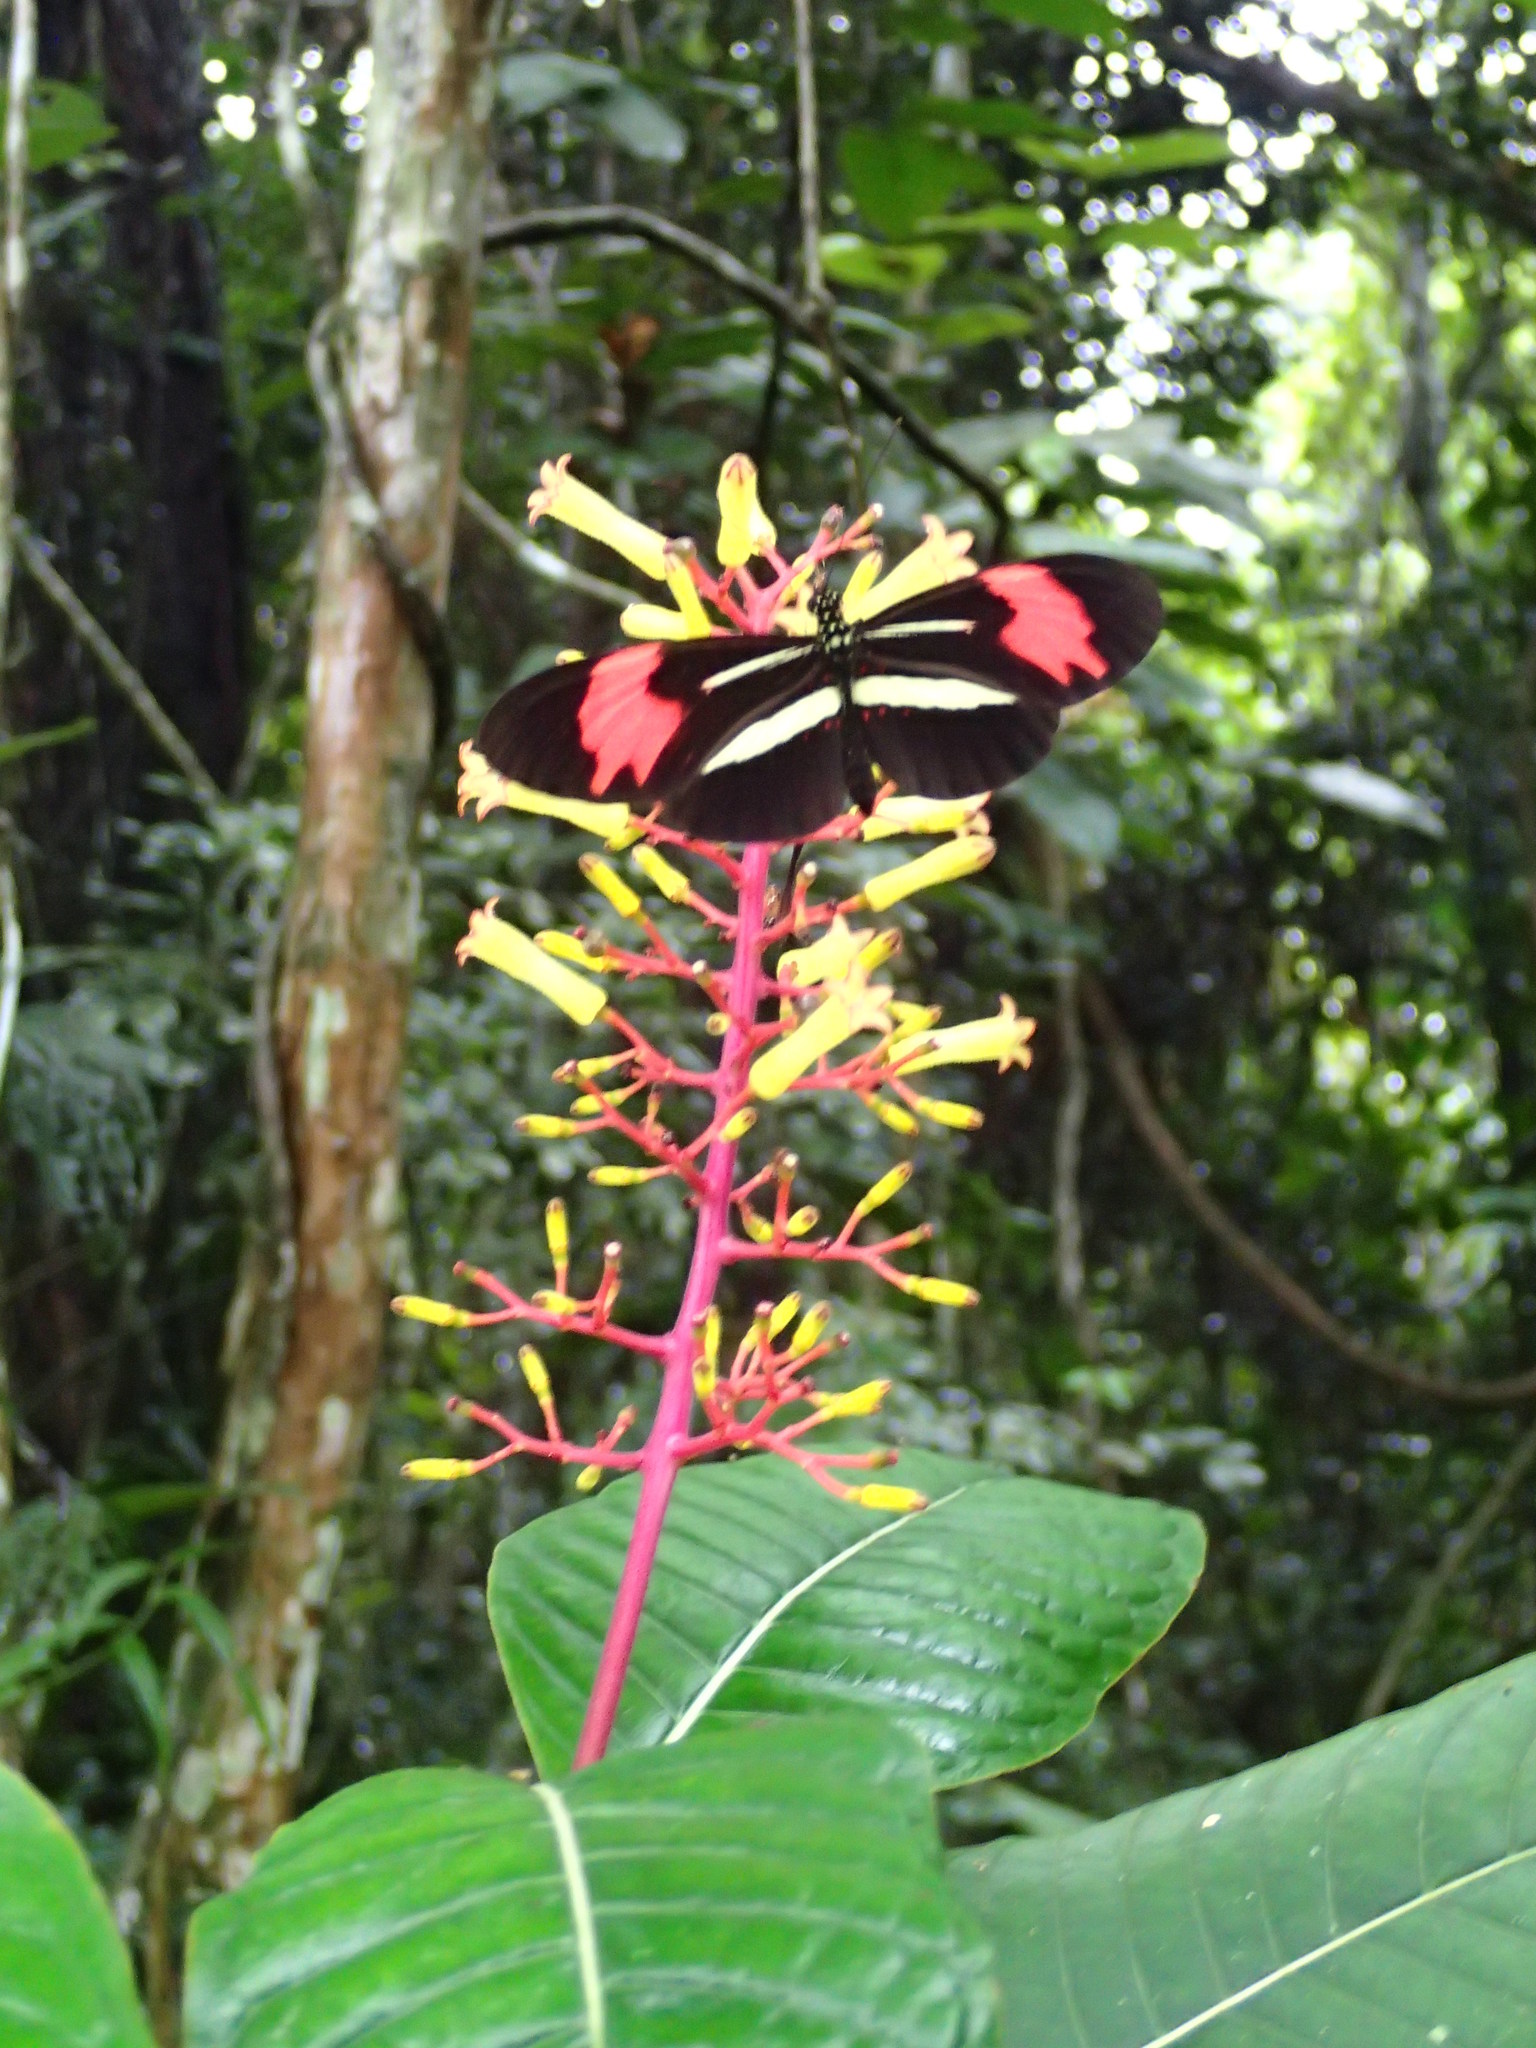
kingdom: Animalia
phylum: Arthropoda
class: Insecta
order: Lepidoptera
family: Nymphalidae
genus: Heliconius
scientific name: Heliconius erato
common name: Common patch longwing
